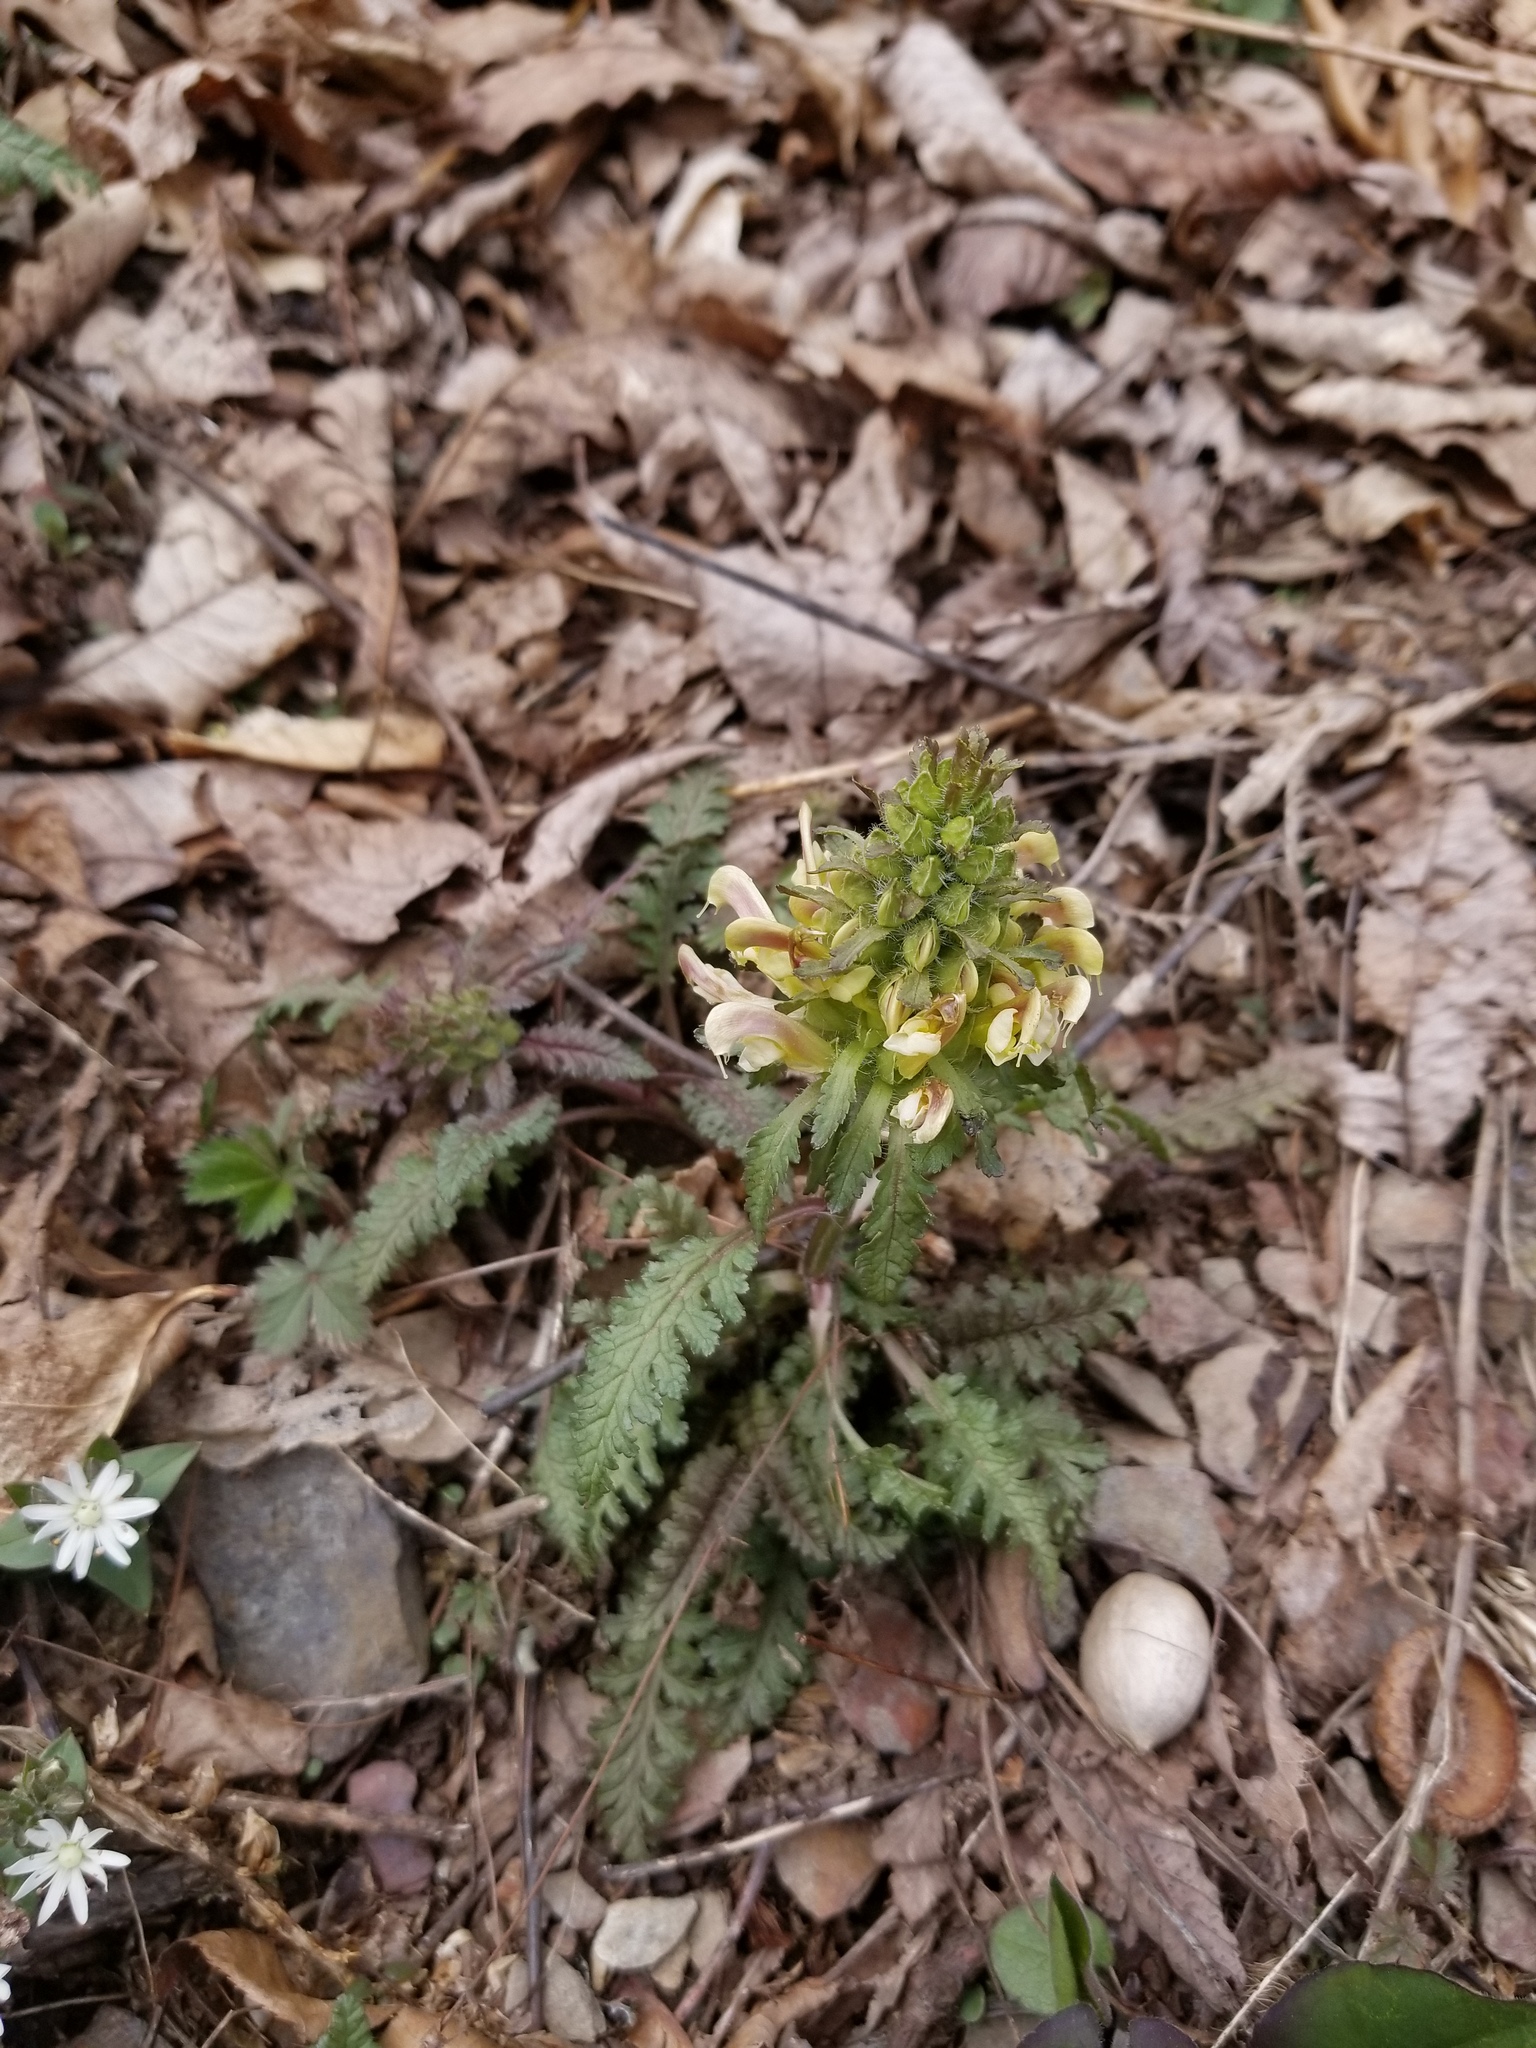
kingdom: Plantae
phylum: Tracheophyta
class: Magnoliopsida
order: Lamiales
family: Orobanchaceae
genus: Pedicularis
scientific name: Pedicularis canadensis
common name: Early lousewort
